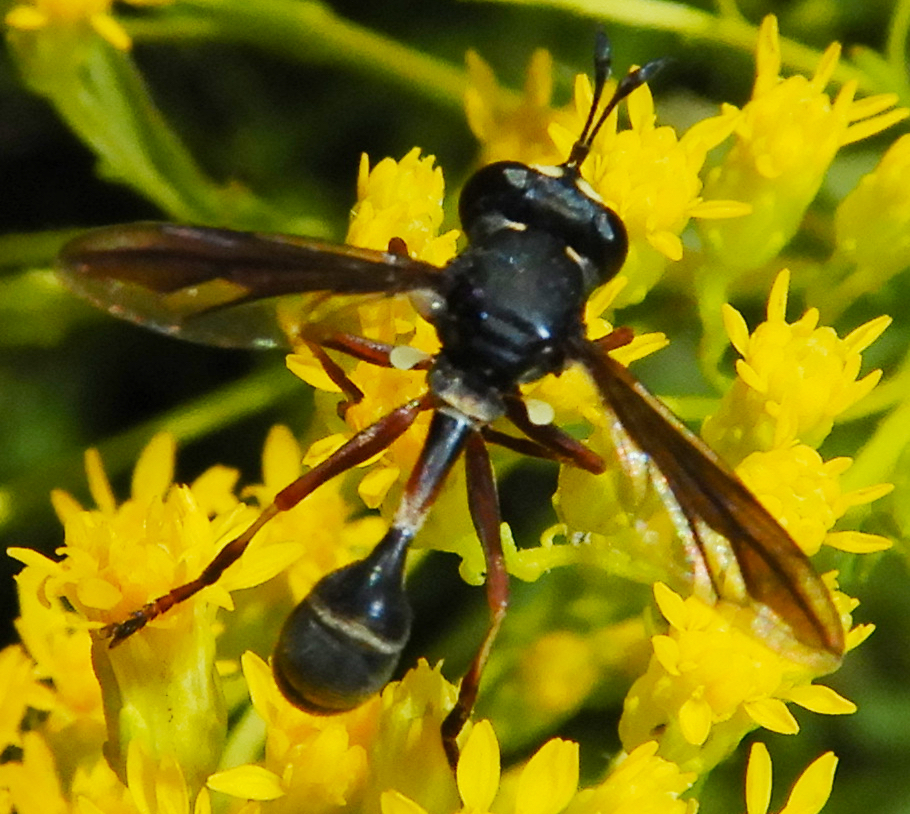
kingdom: Animalia
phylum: Arthropoda
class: Insecta
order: Diptera
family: Conopidae
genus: Physocephala
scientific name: Physocephala furcillata
